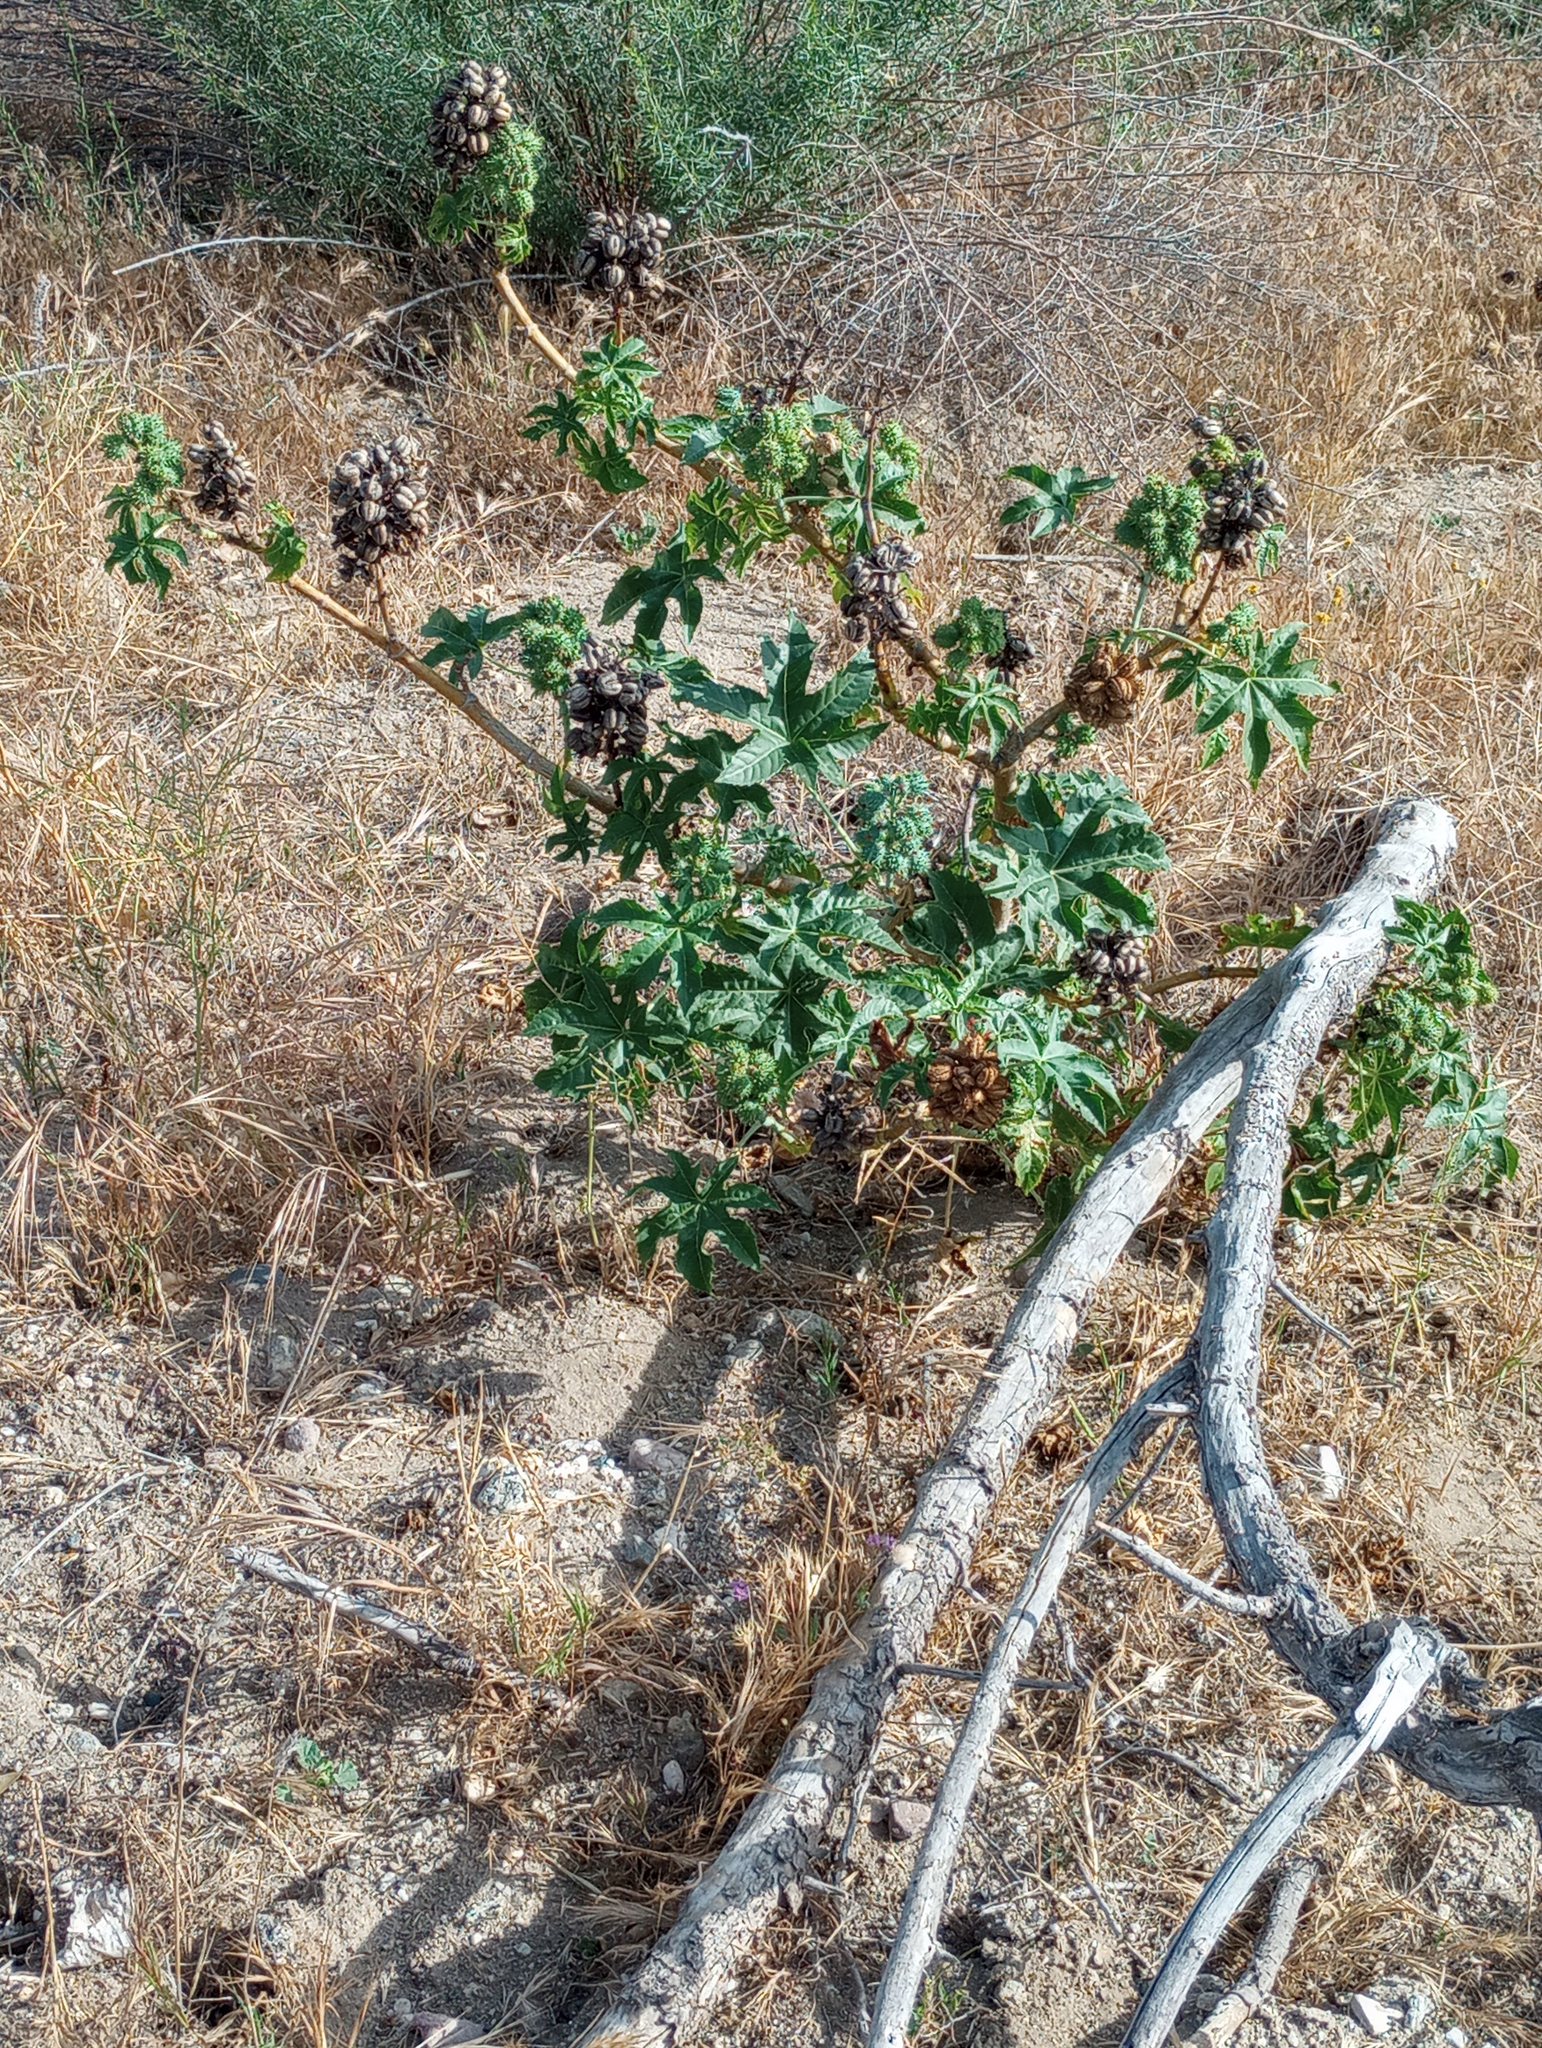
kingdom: Plantae
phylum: Tracheophyta
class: Magnoliopsida
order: Malpighiales
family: Euphorbiaceae
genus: Ricinus
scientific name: Ricinus communis
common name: Castor-oil-plant
